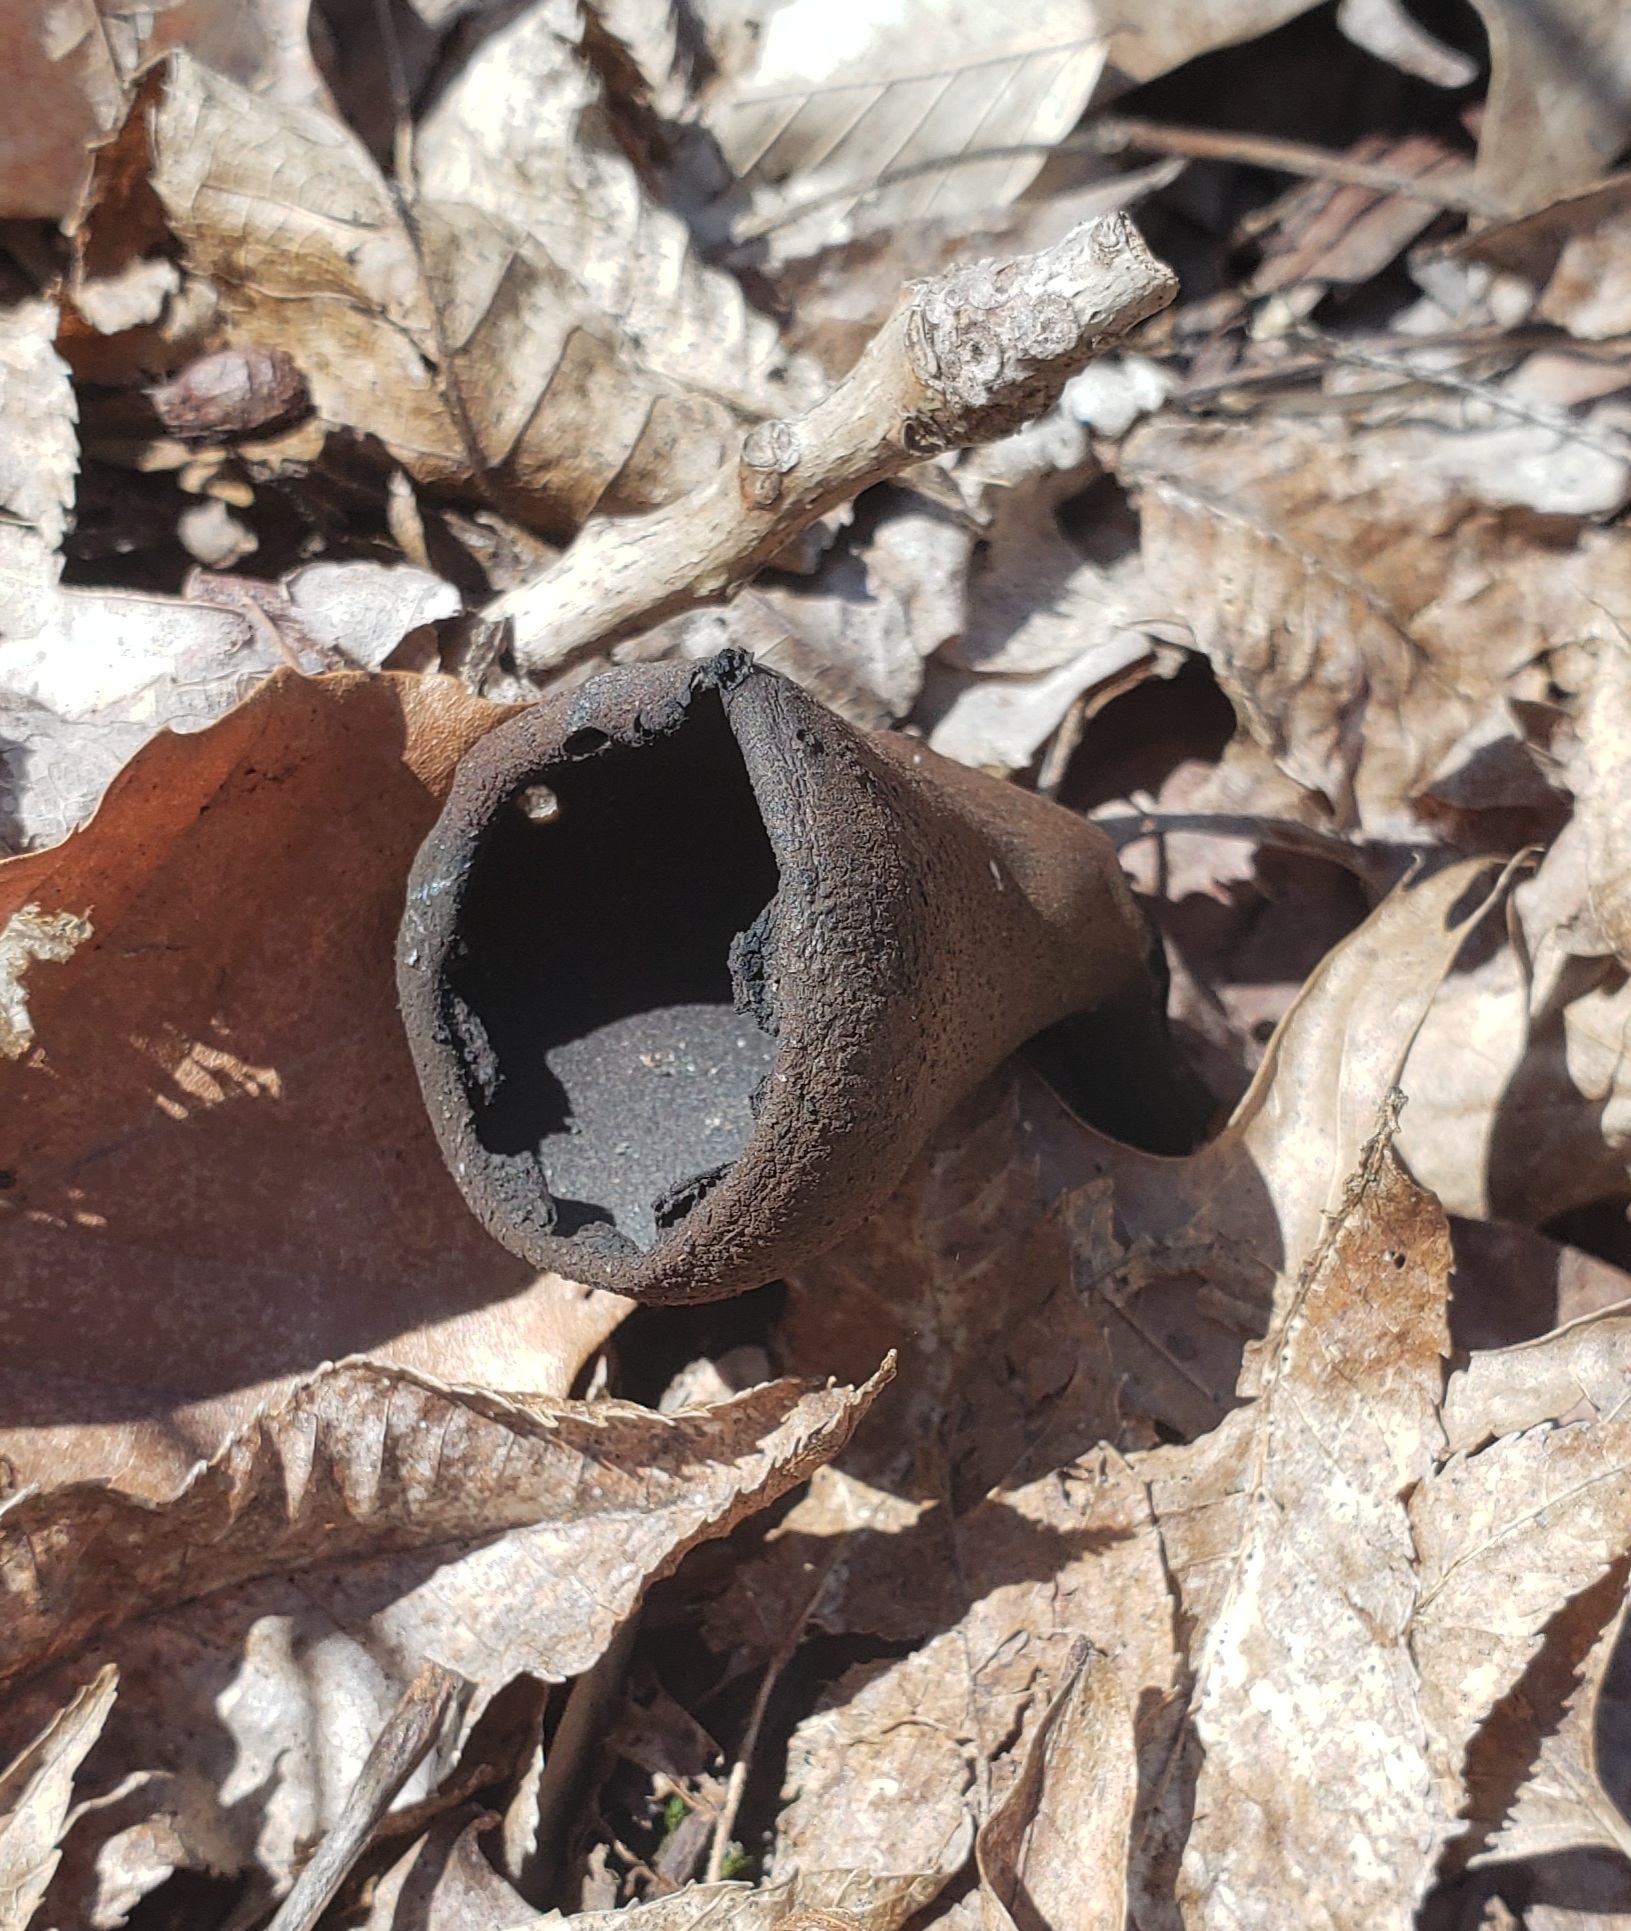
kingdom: Fungi
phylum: Ascomycota
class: Pezizomycetes
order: Pezizales
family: Sarcosomataceae
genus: Urnula
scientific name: Urnula craterium
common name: Devil's urn
